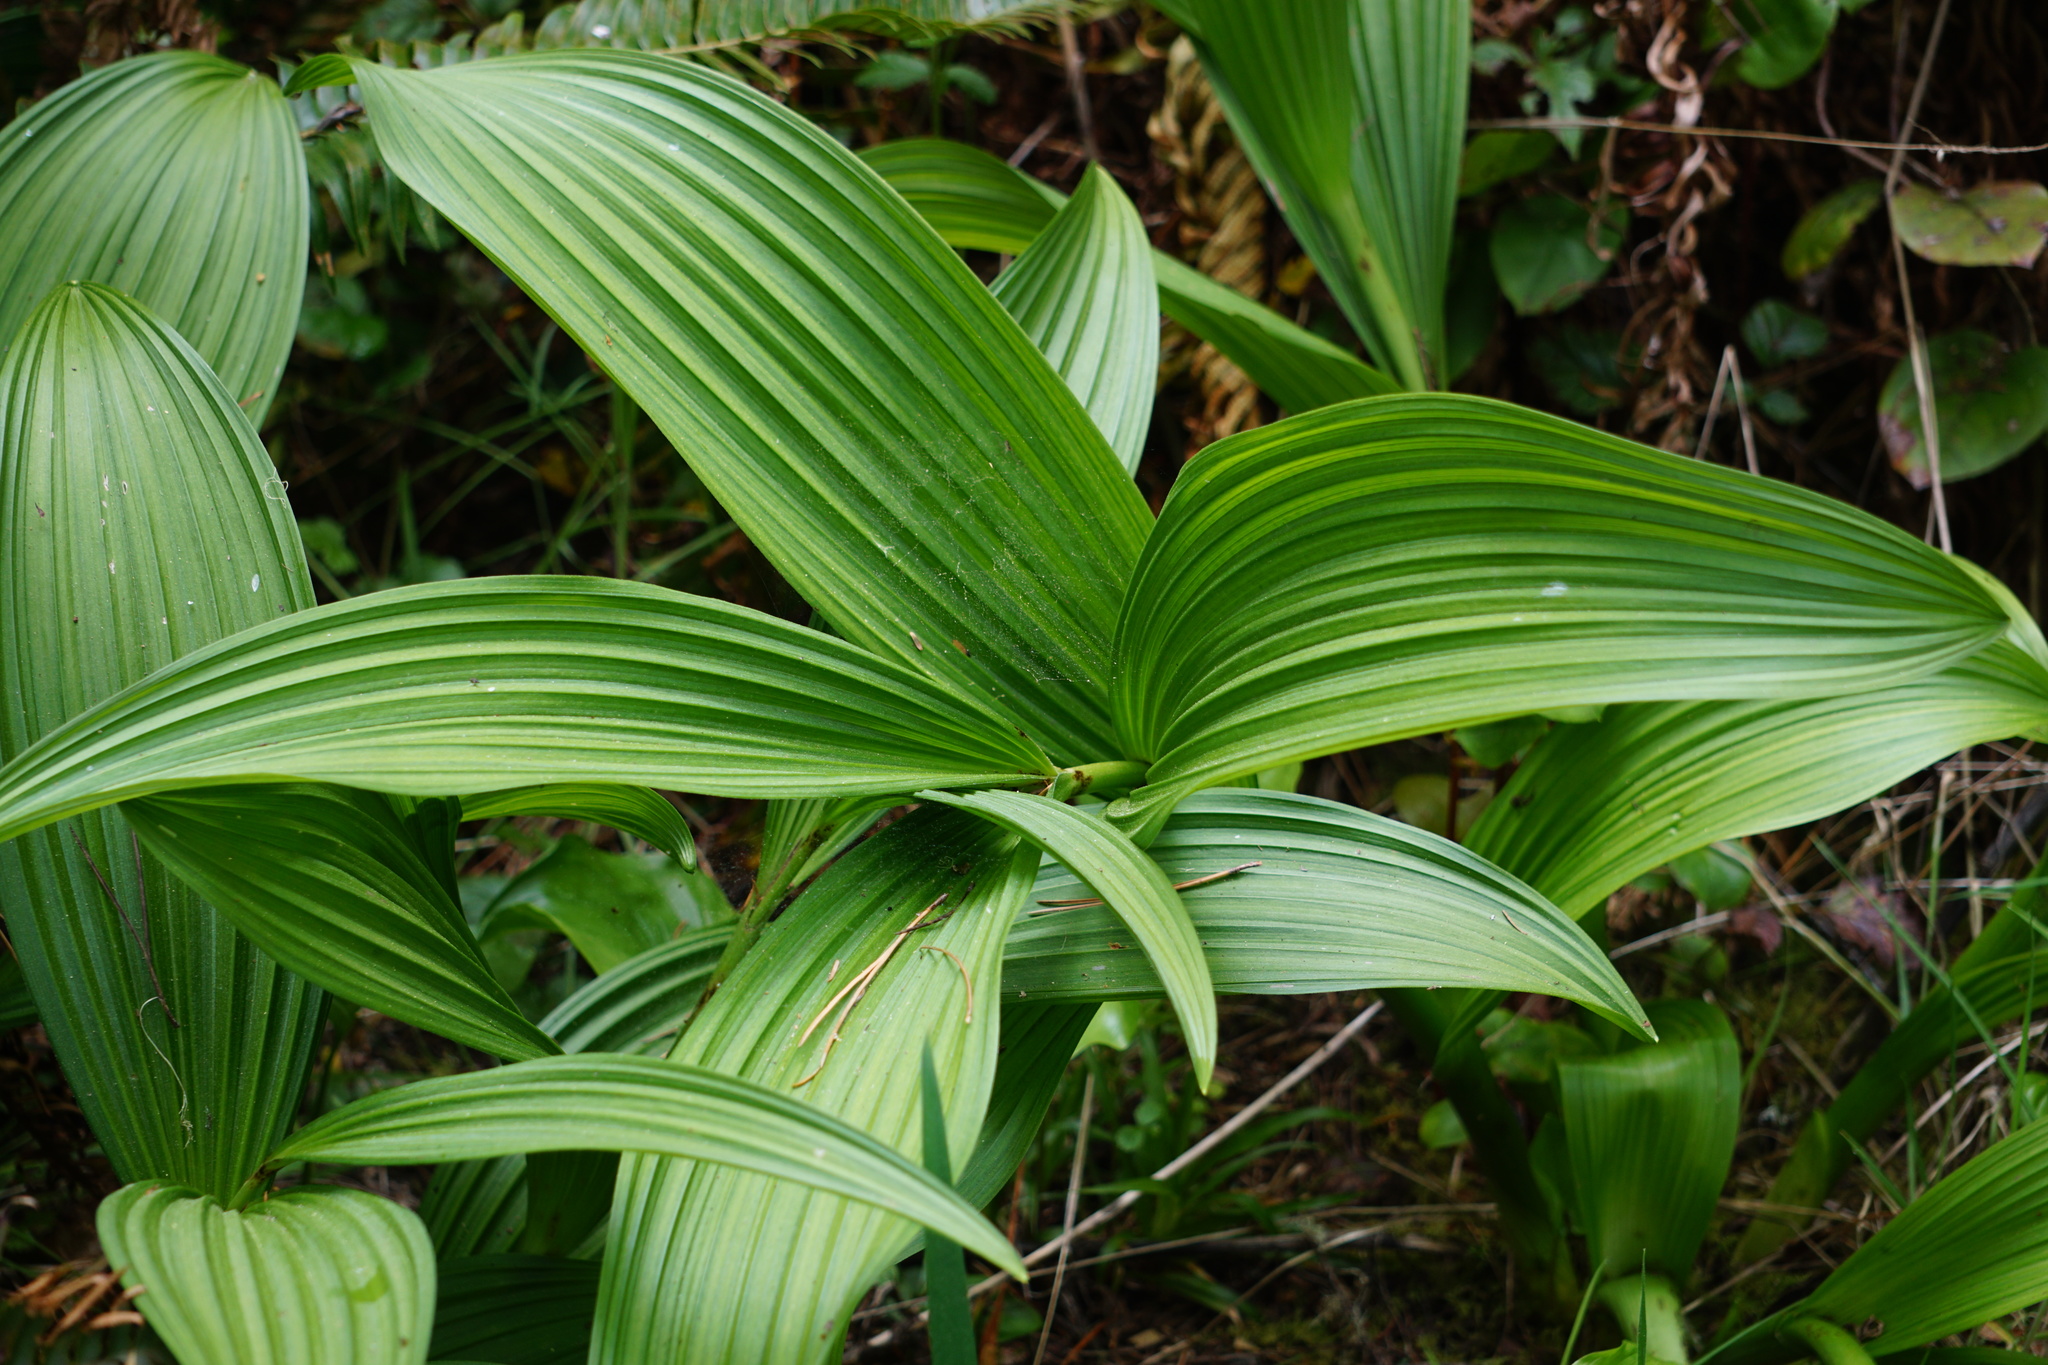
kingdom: Plantae
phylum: Tracheophyta
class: Liliopsida
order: Liliales
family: Melanthiaceae
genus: Veratrum
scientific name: Veratrum fimbriatum
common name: Fringe false hellobore
